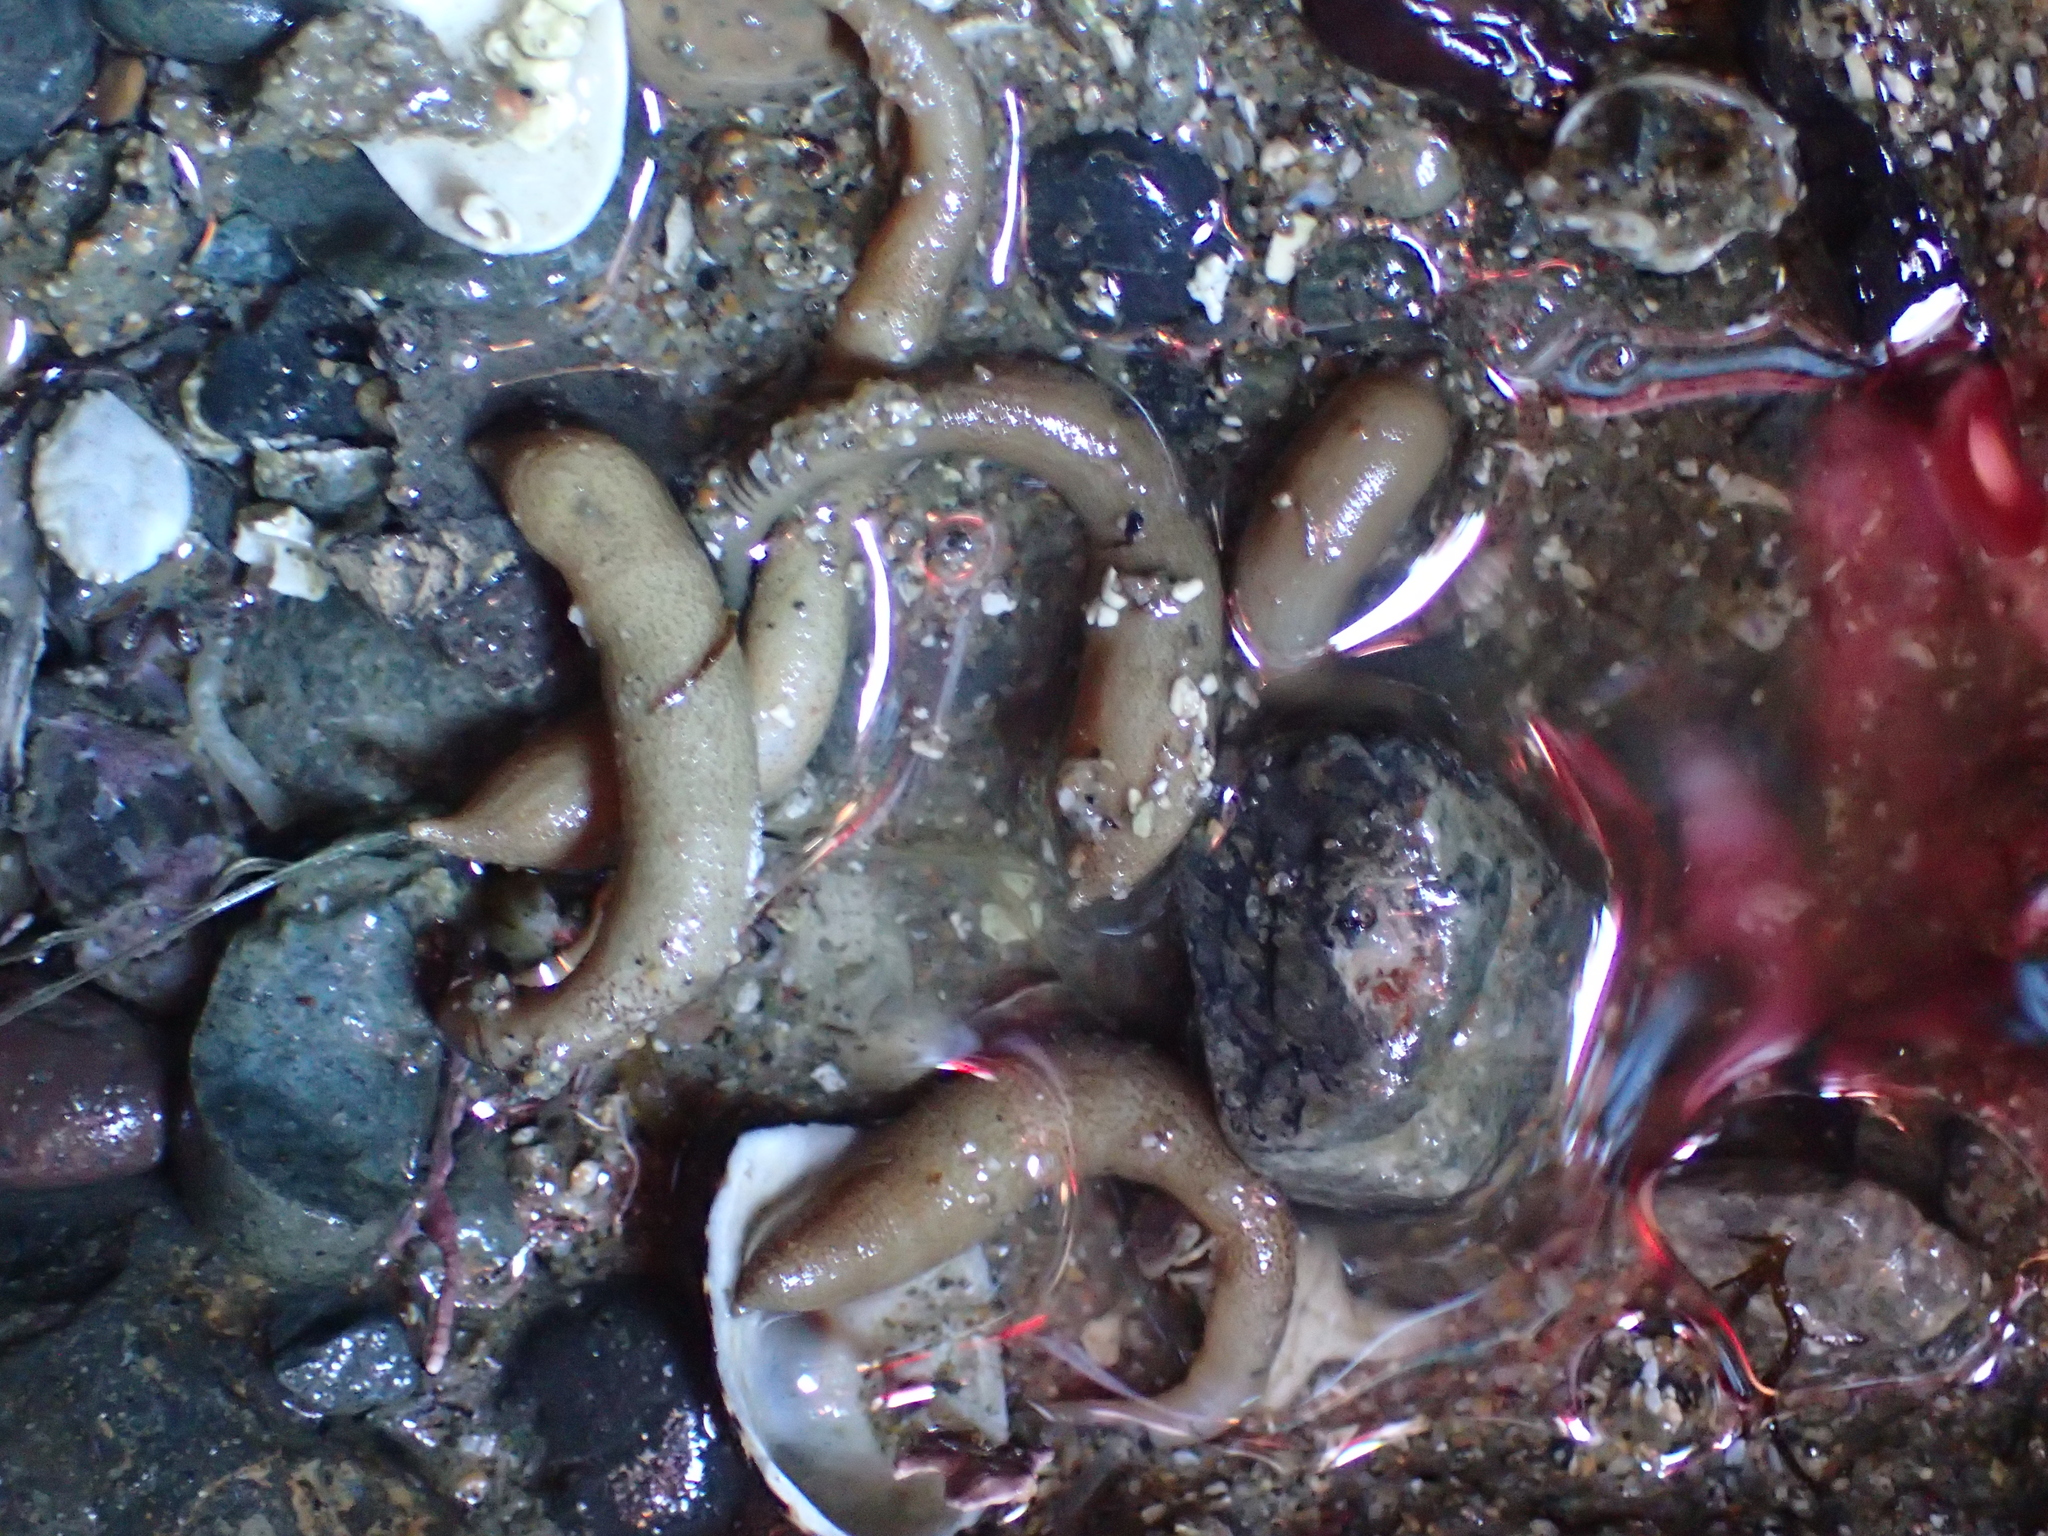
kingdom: Animalia
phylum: Sipuncula
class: Phascolosomatidea
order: Phascolosomatiformes
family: Phascolosomatidae
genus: Phascolosoma
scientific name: Phascolosoma agassizii
